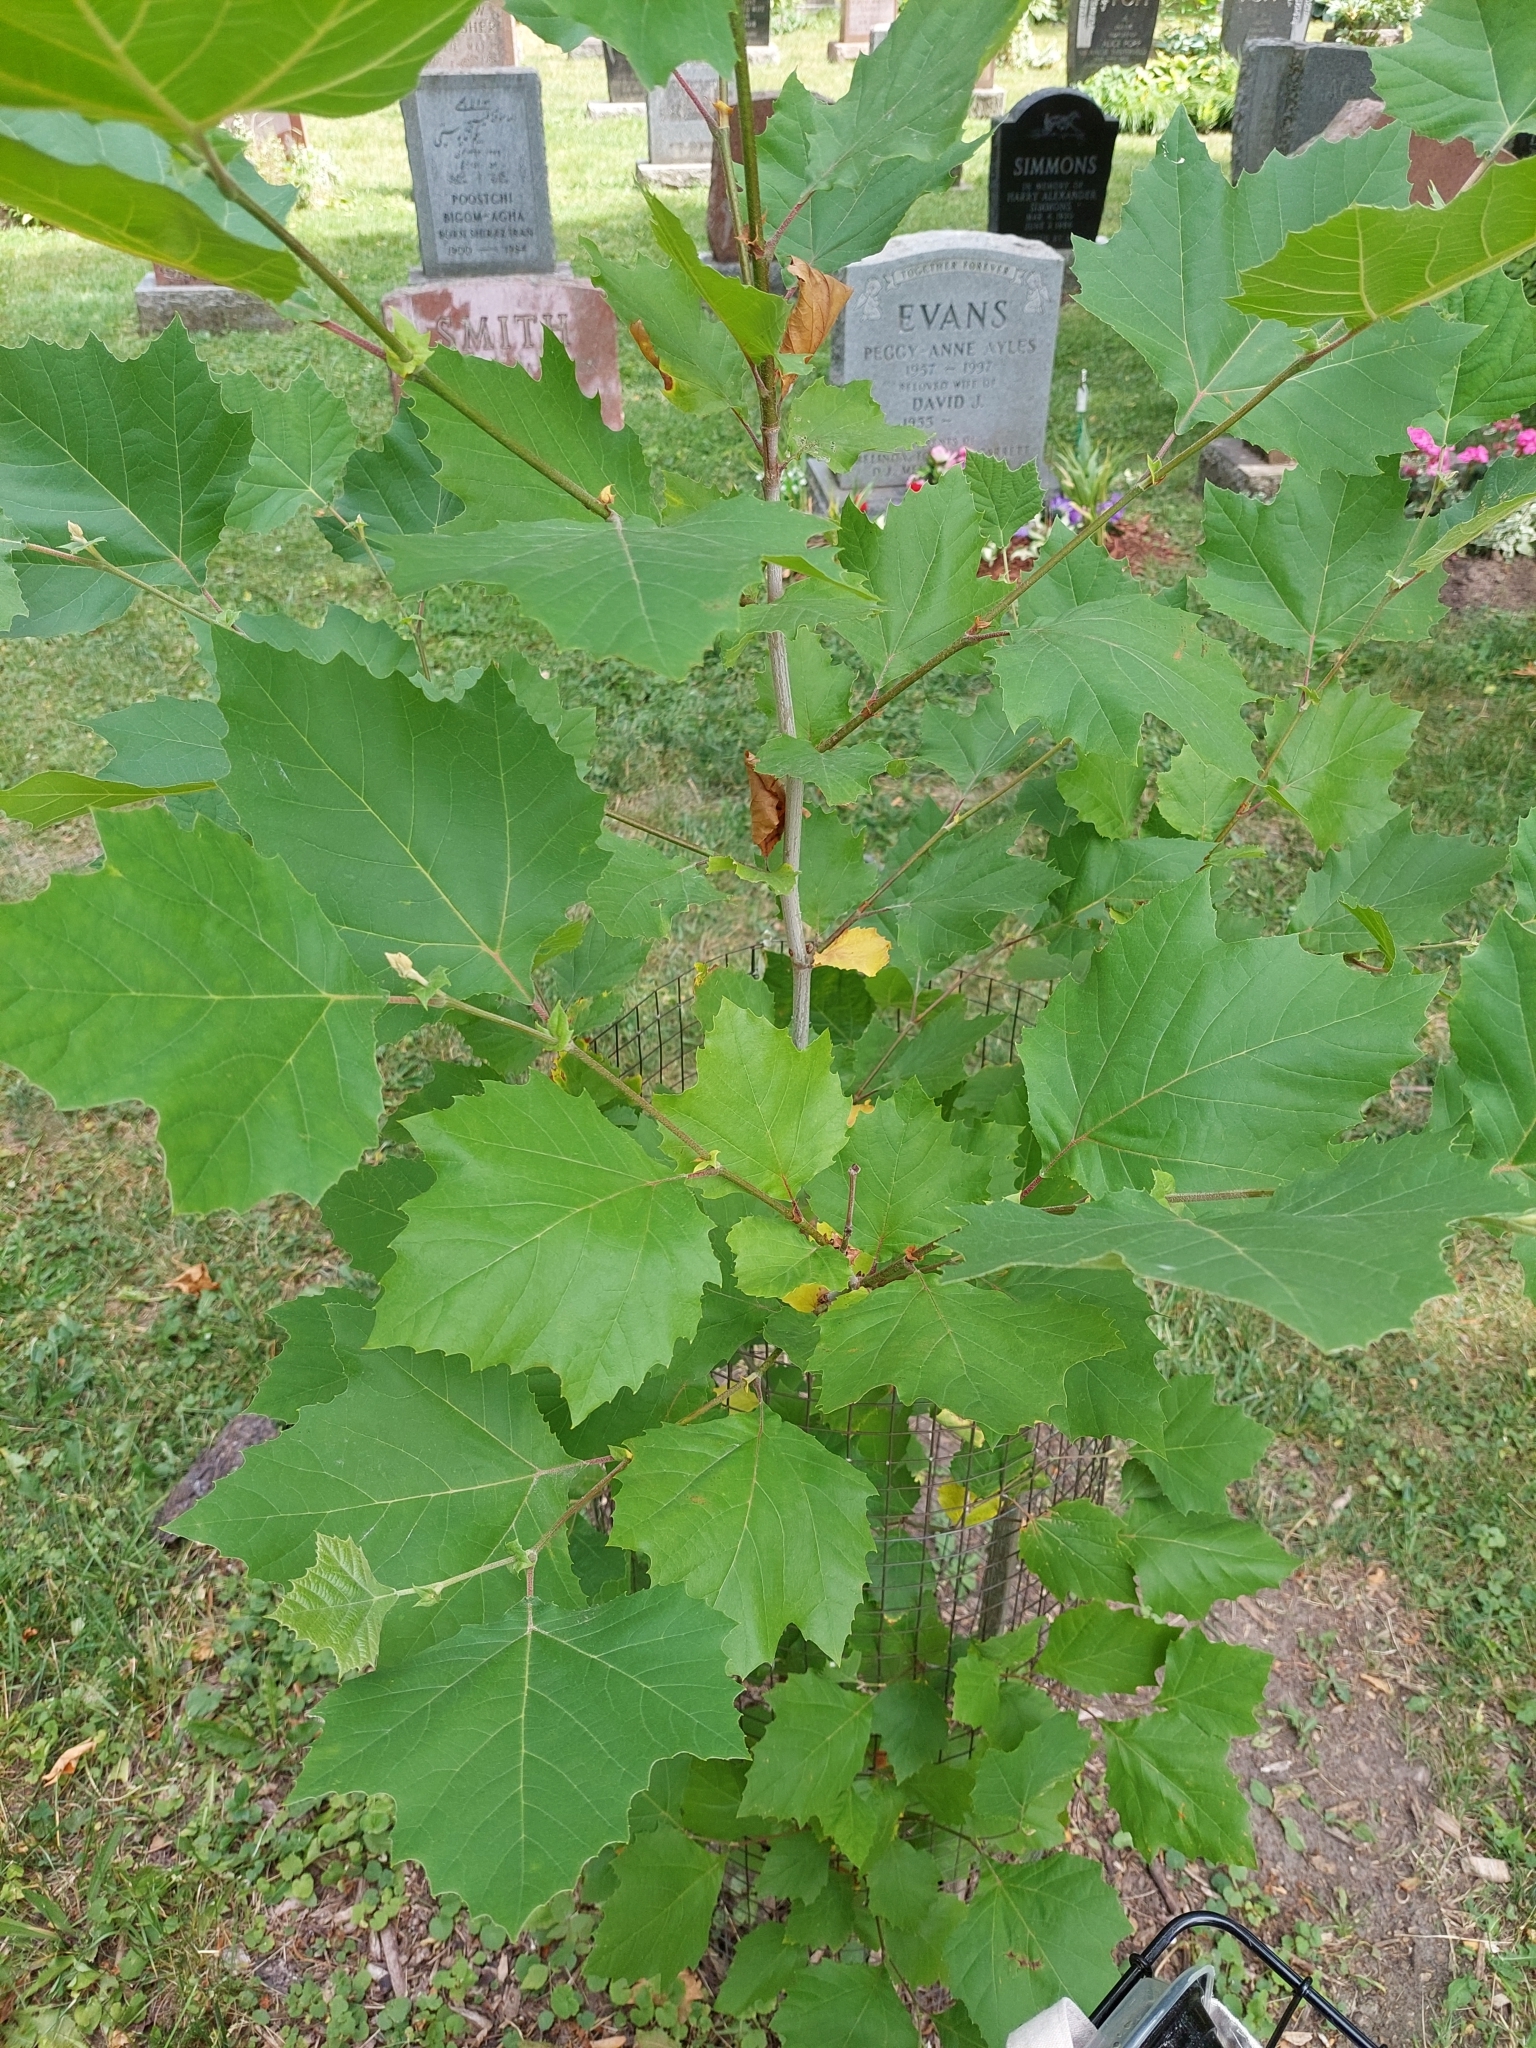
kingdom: Plantae
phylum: Tracheophyta
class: Magnoliopsida
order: Proteales
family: Platanaceae
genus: Platanus
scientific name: Platanus occidentalis
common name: American sycamore
